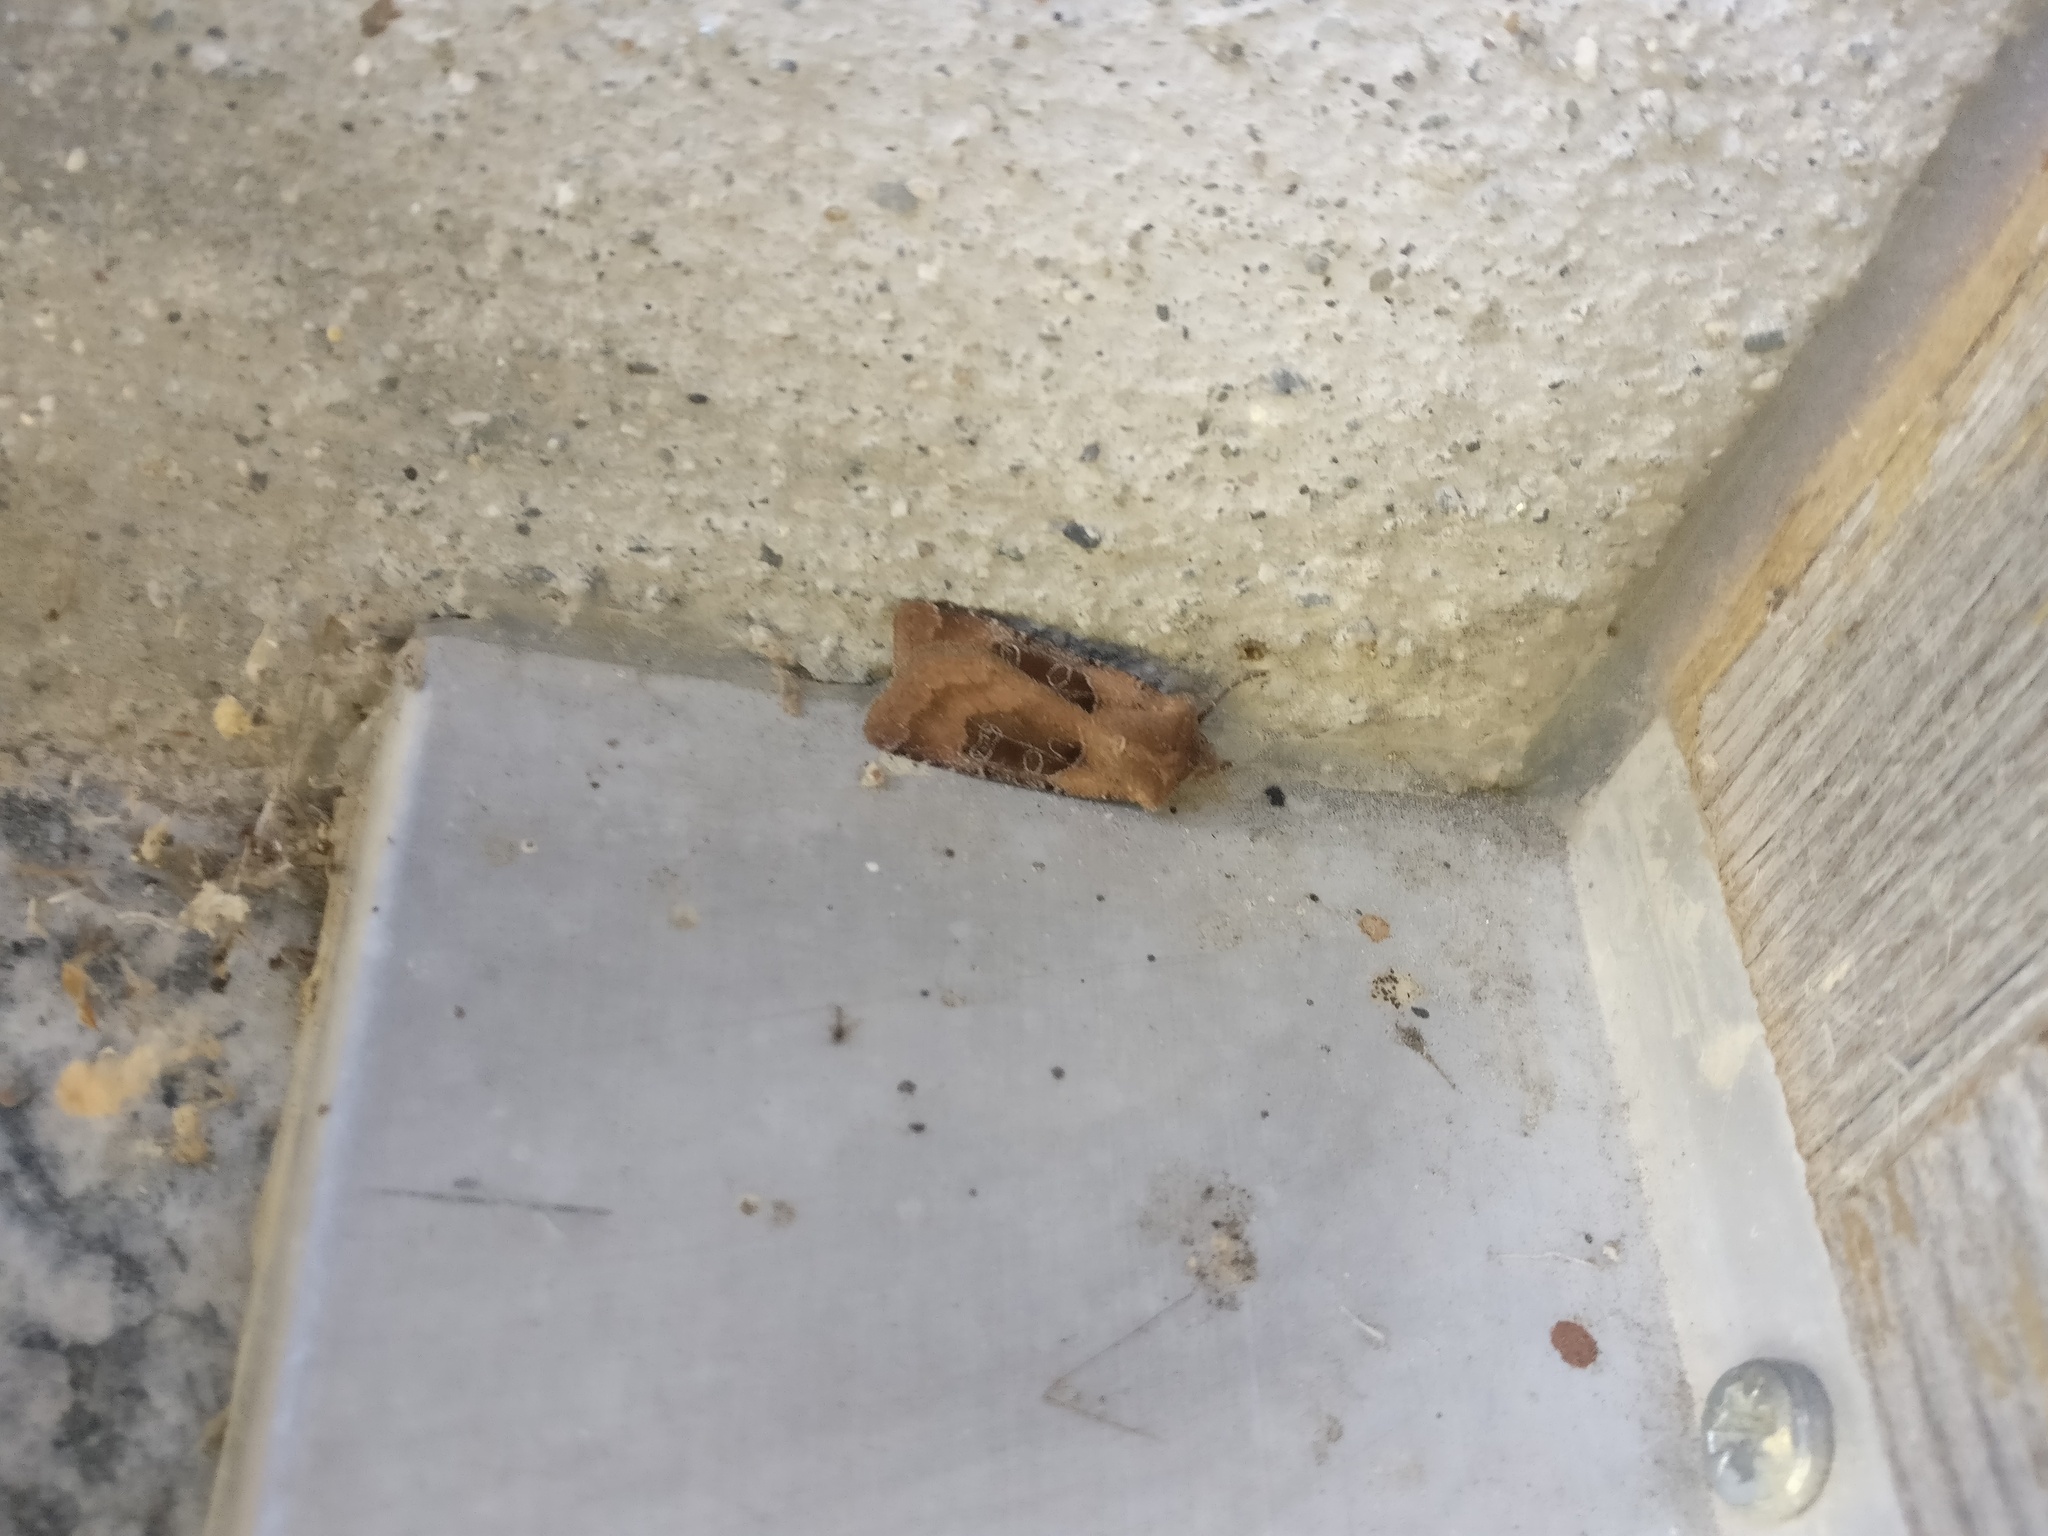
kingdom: Animalia
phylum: Arthropoda
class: Insecta
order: Lepidoptera
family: Noctuidae
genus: Chersotis
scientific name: Chersotis cuprea
